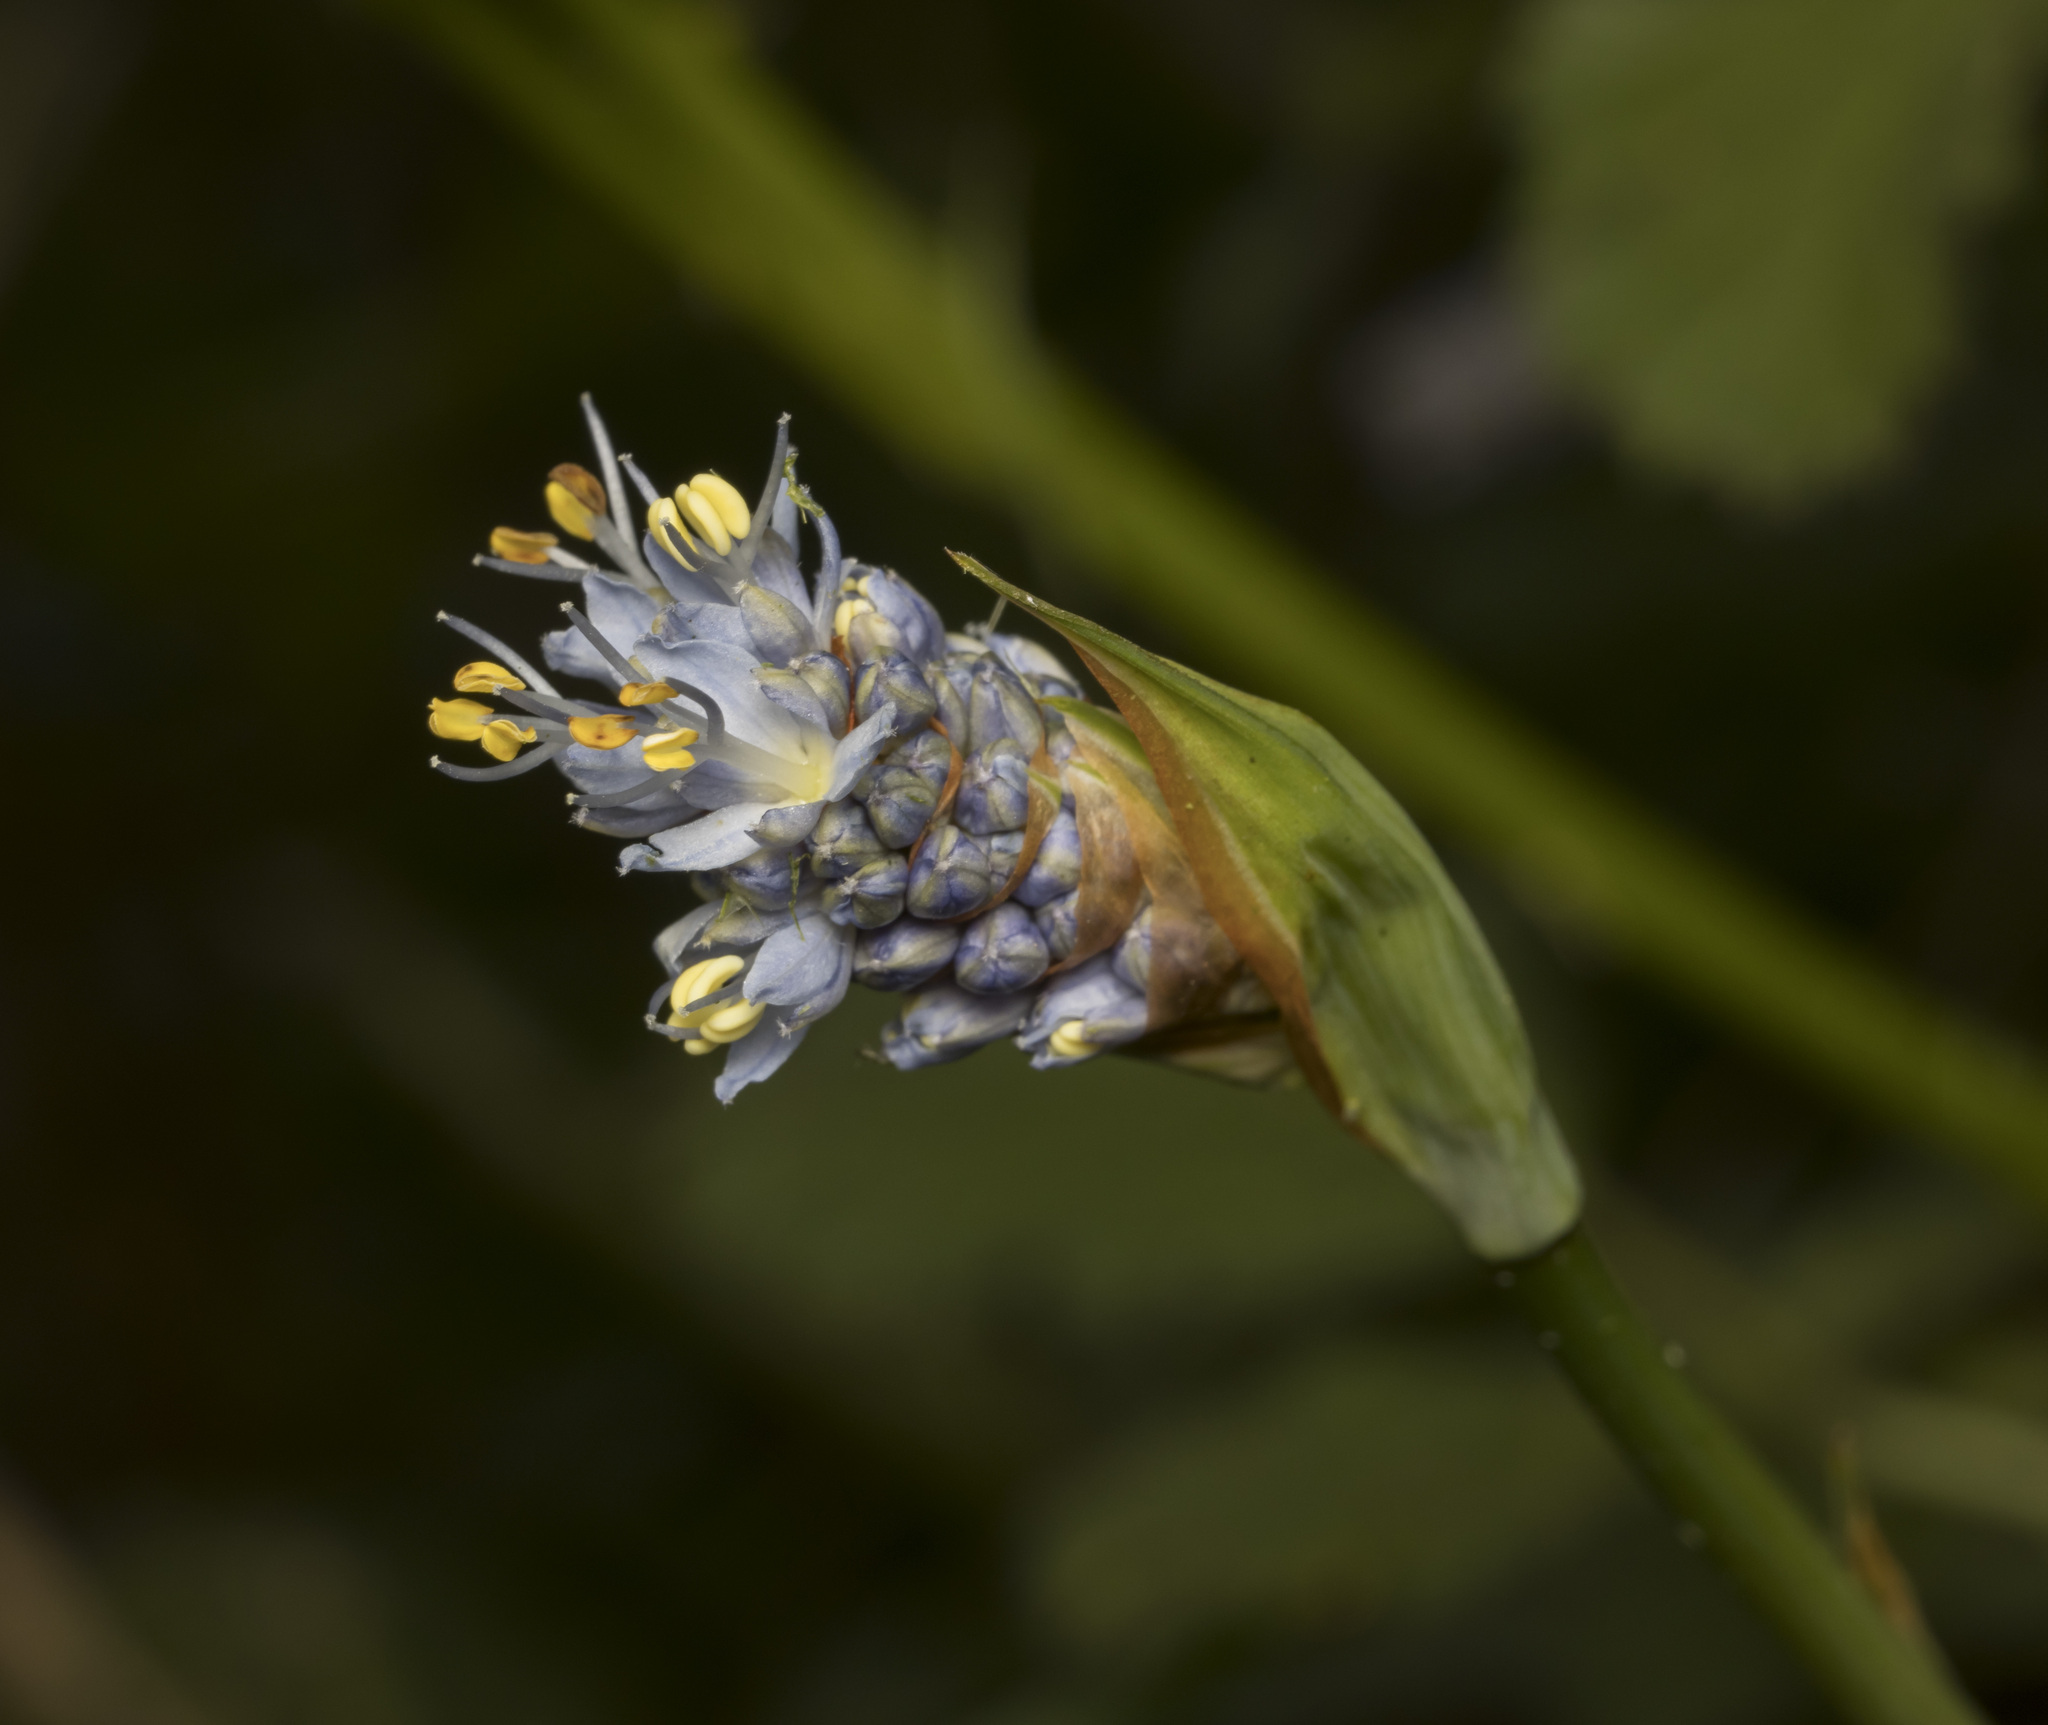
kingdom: Plantae
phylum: Tracheophyta
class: Liliopsida
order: Asparagales
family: Iridaceae
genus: Libertia
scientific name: Libertia sessiliflora
